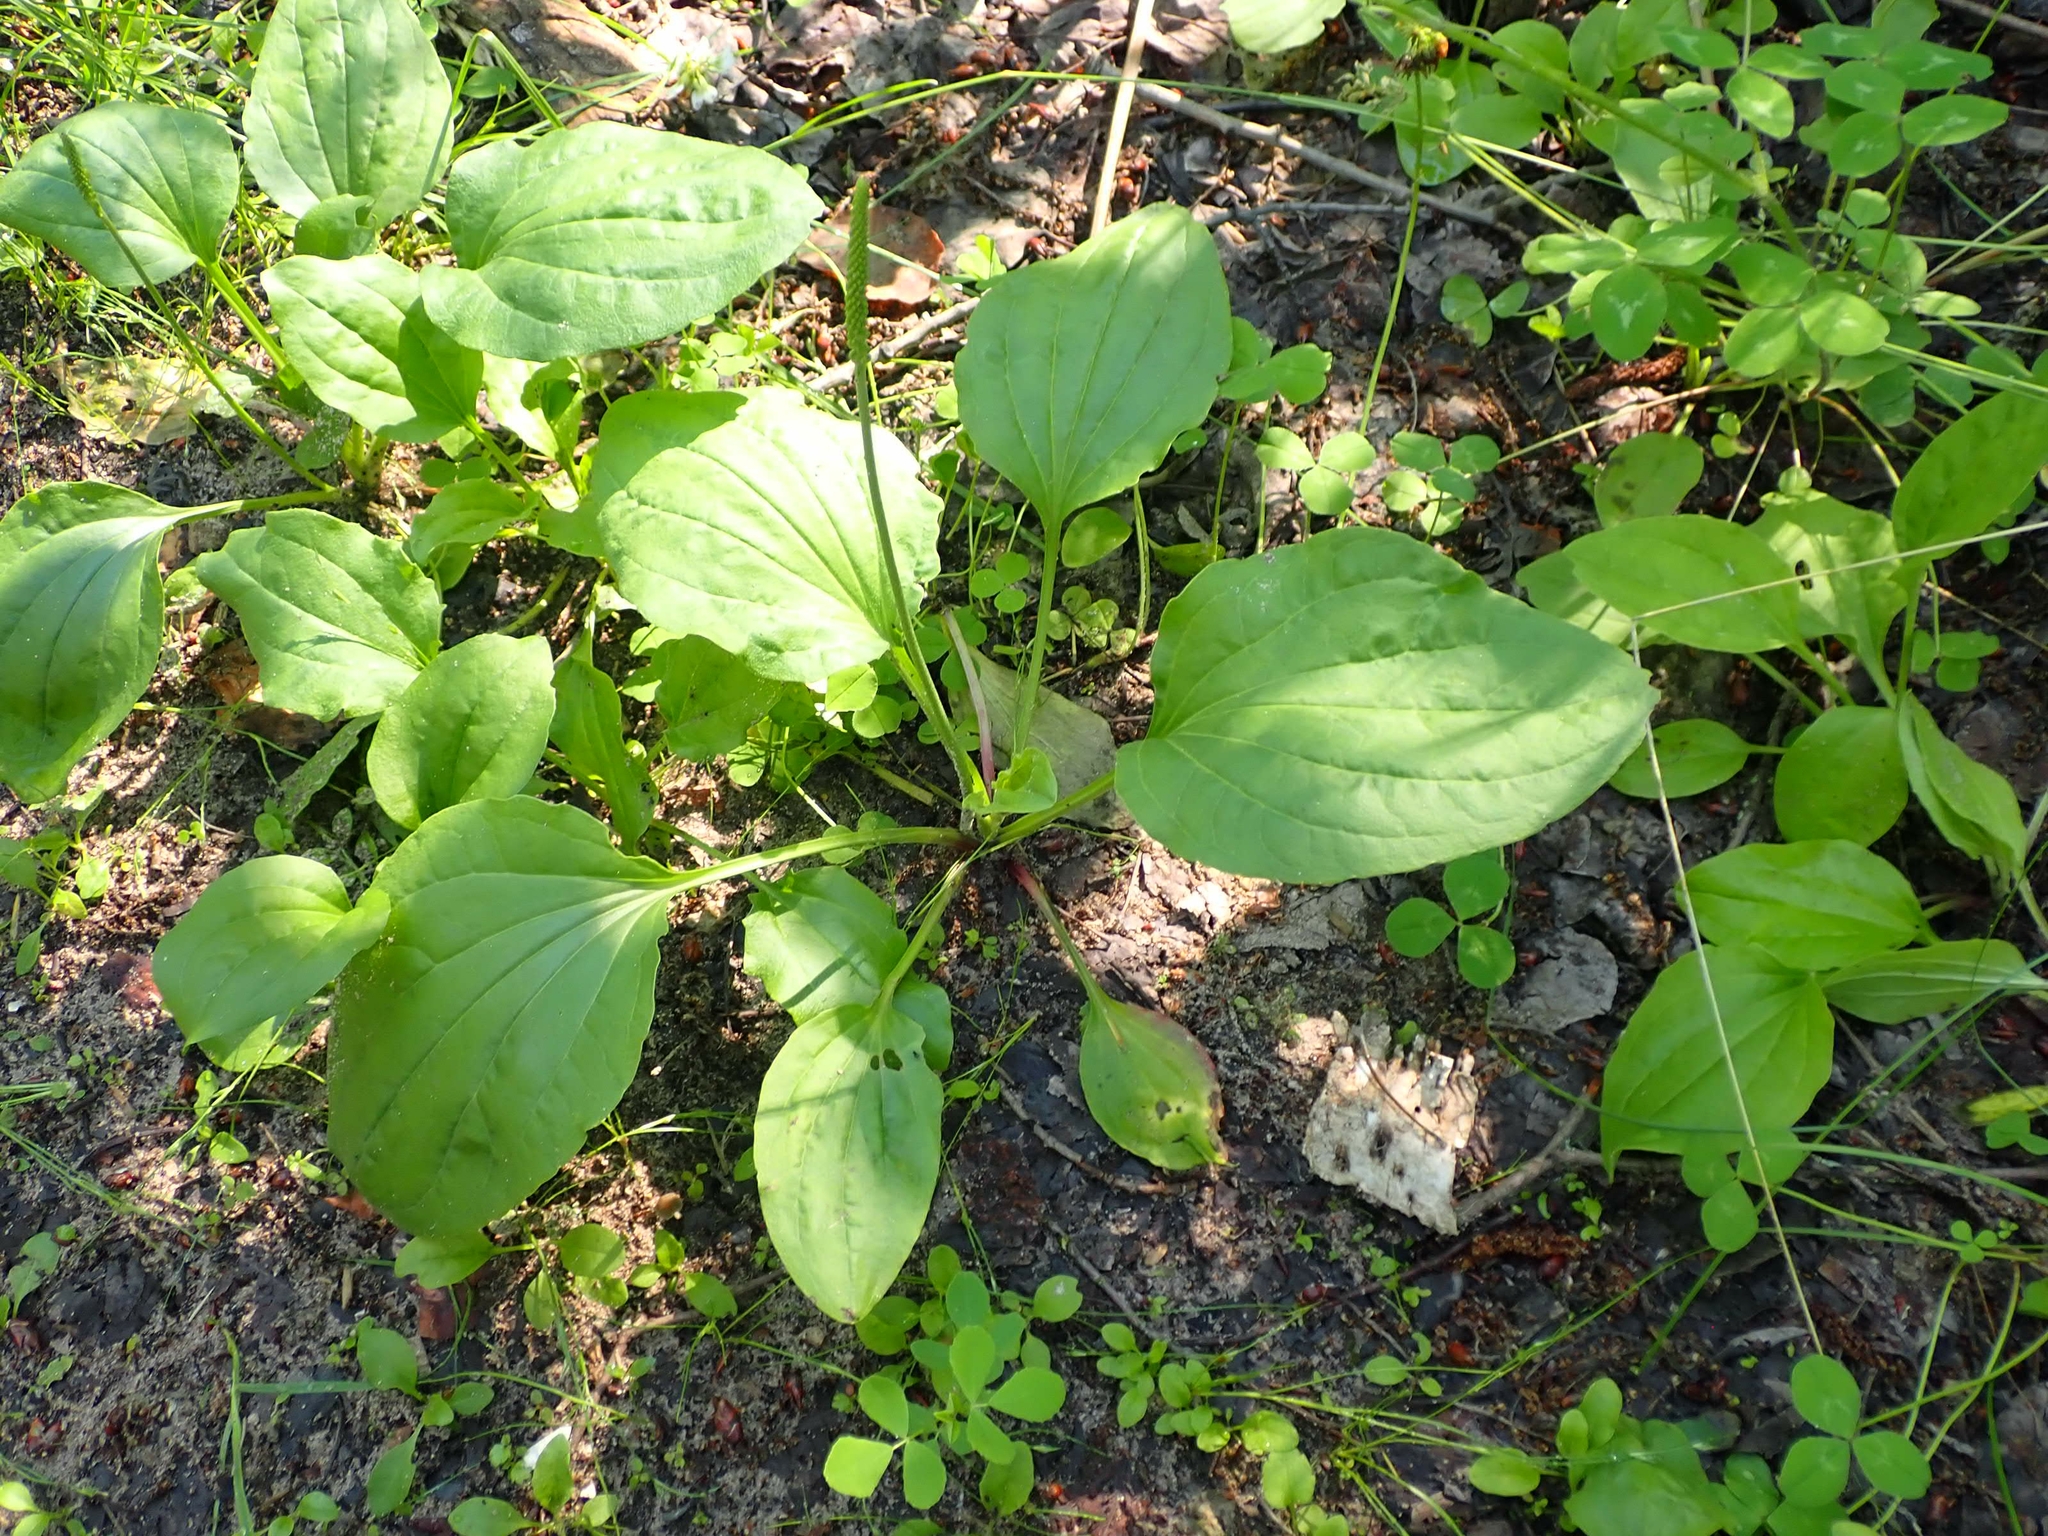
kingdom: Plantae
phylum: Tracheophyta
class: Magnoliopsida
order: Lamiales
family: Plantaginaceae
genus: Plantago
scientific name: Plantago rugelii
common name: American plantain
